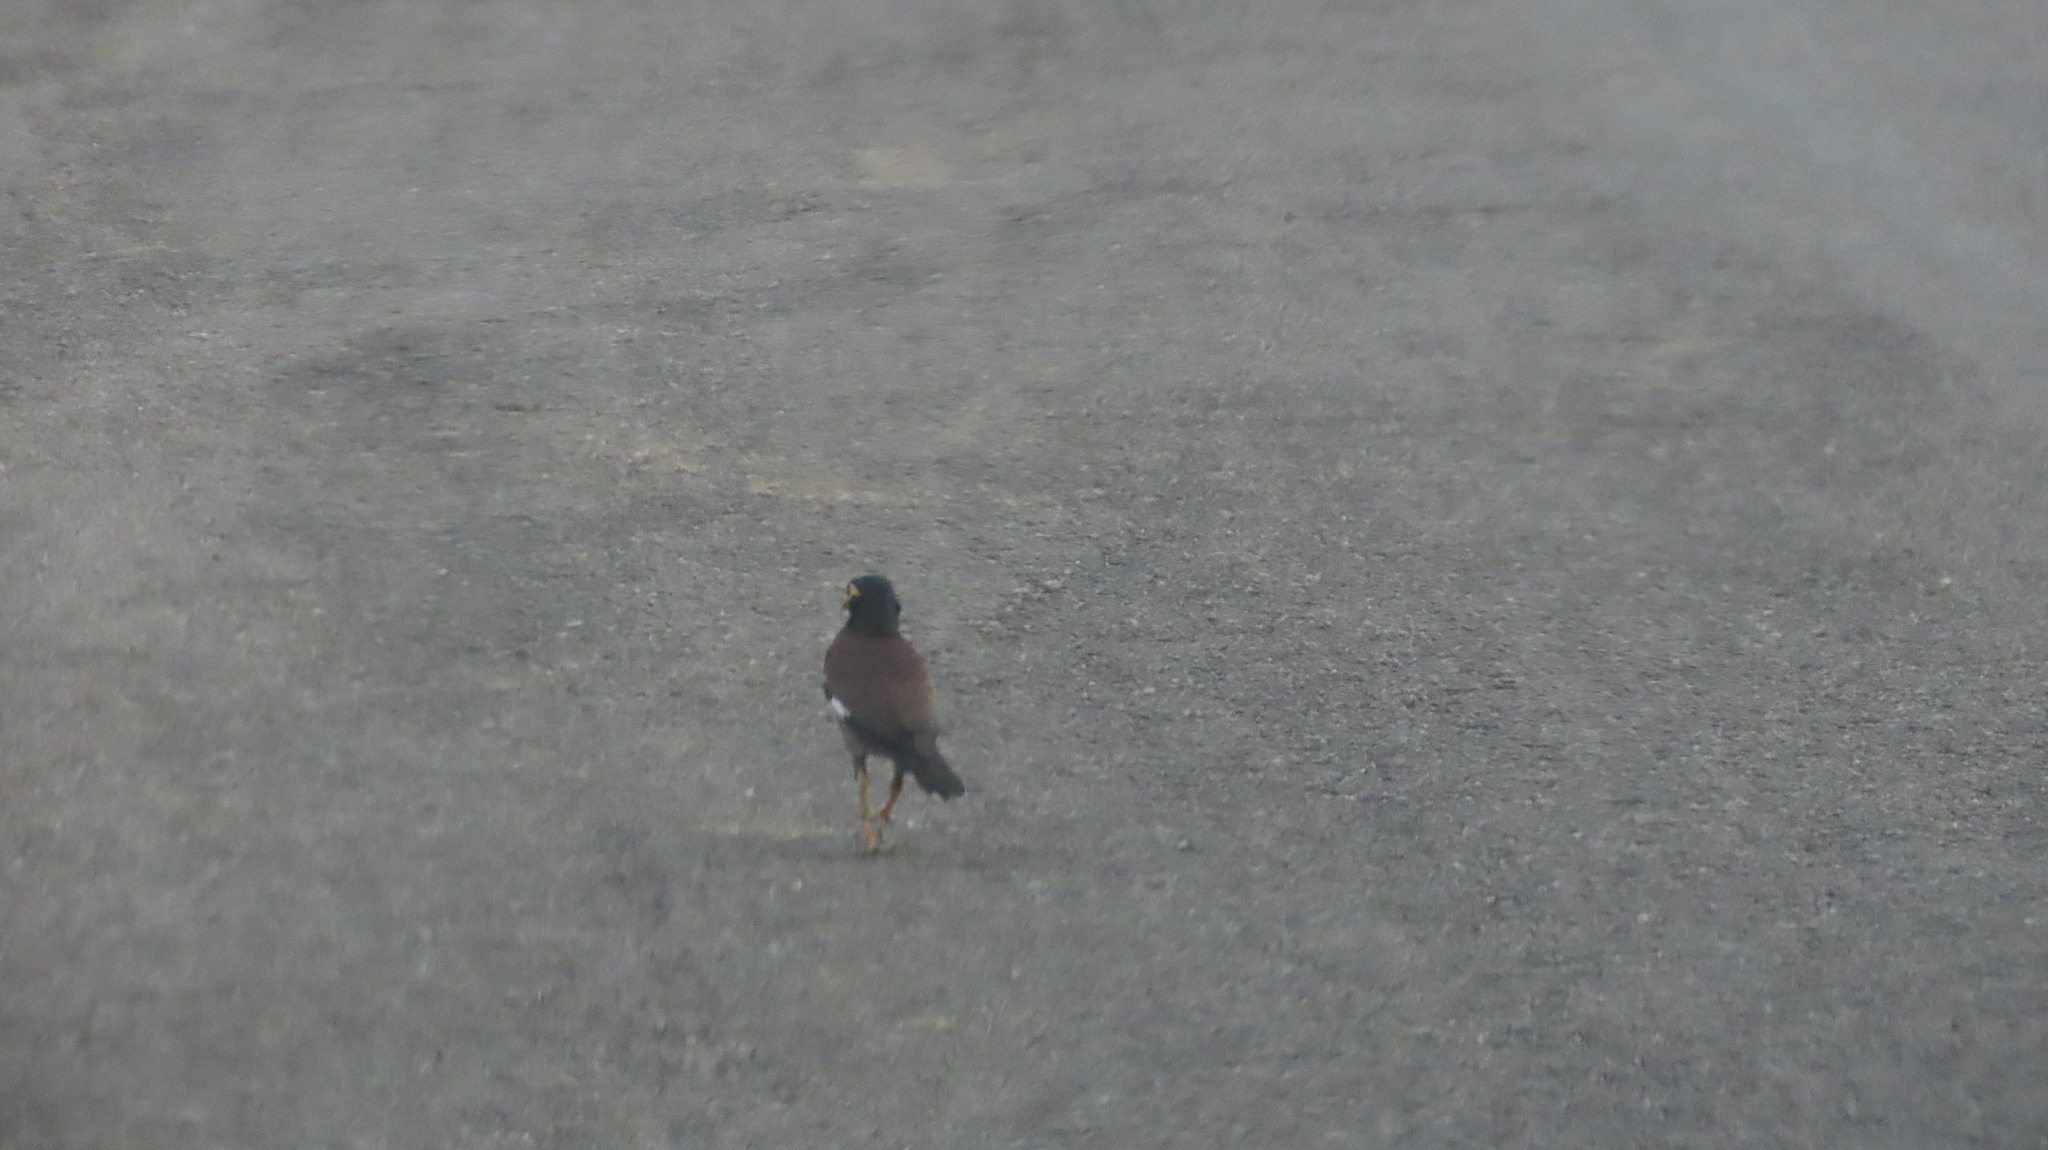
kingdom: Animalia
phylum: Chordata
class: Aves
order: Passeriformes
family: Sturnidae
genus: Acridotheres
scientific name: Acridotheres tristis
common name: Common myna
